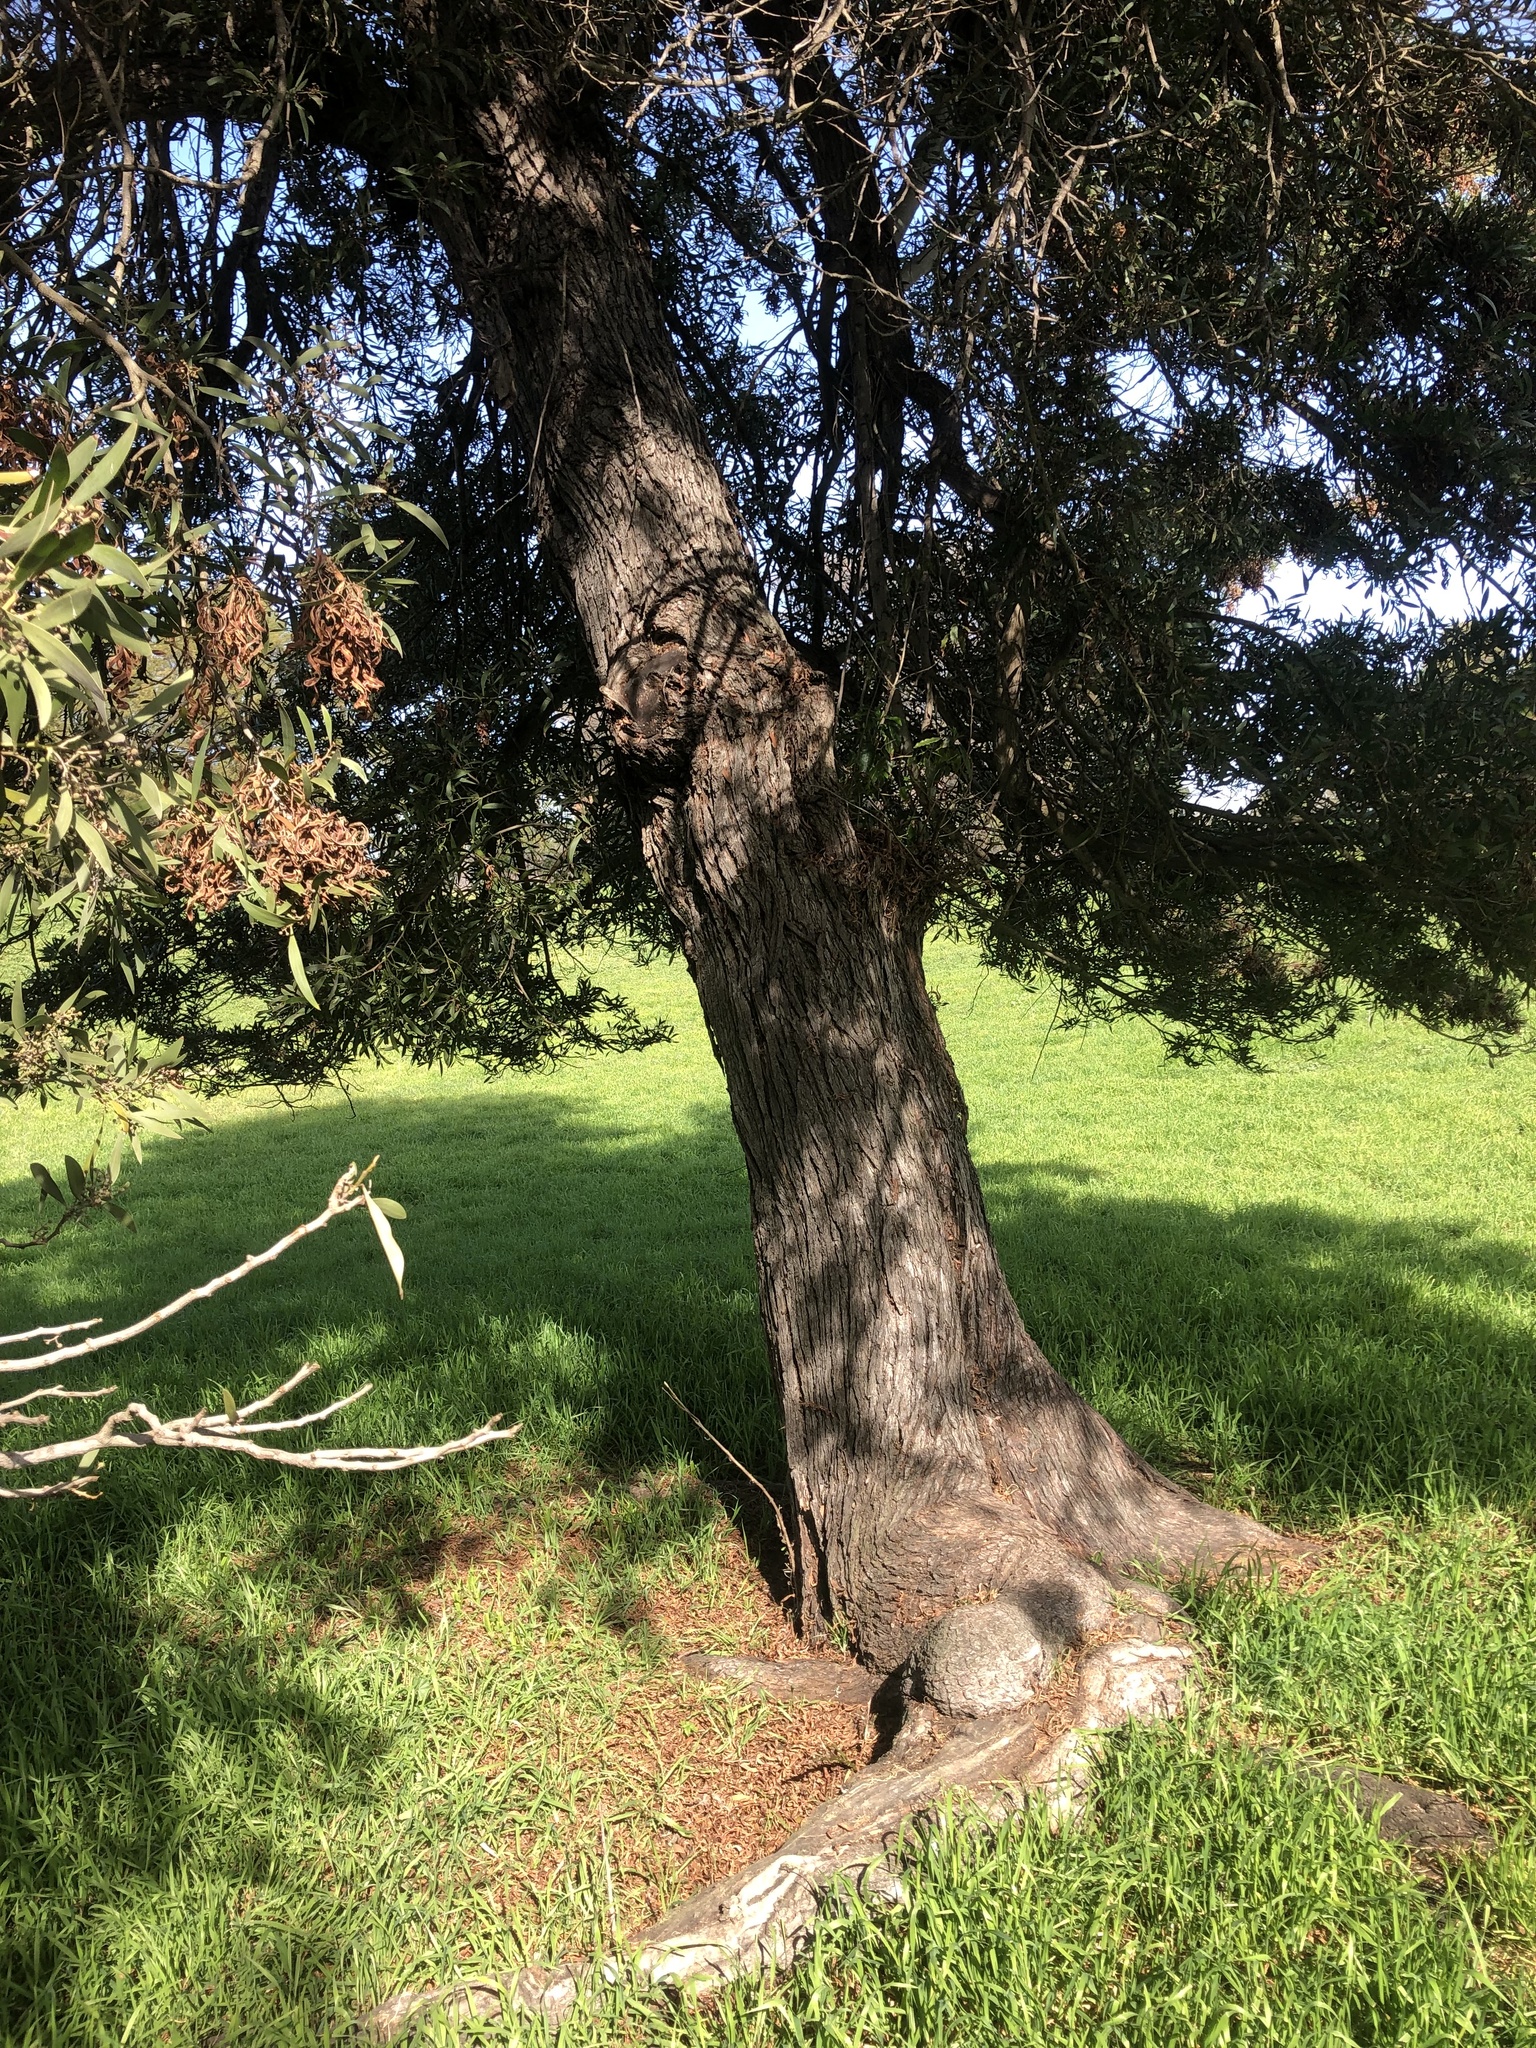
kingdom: Plantae
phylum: Tracheophyta
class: Magnoliopsida
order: Fabales
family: Fabaceae
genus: Acacia
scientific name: Acacia melanoxylon
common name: Blackwood
